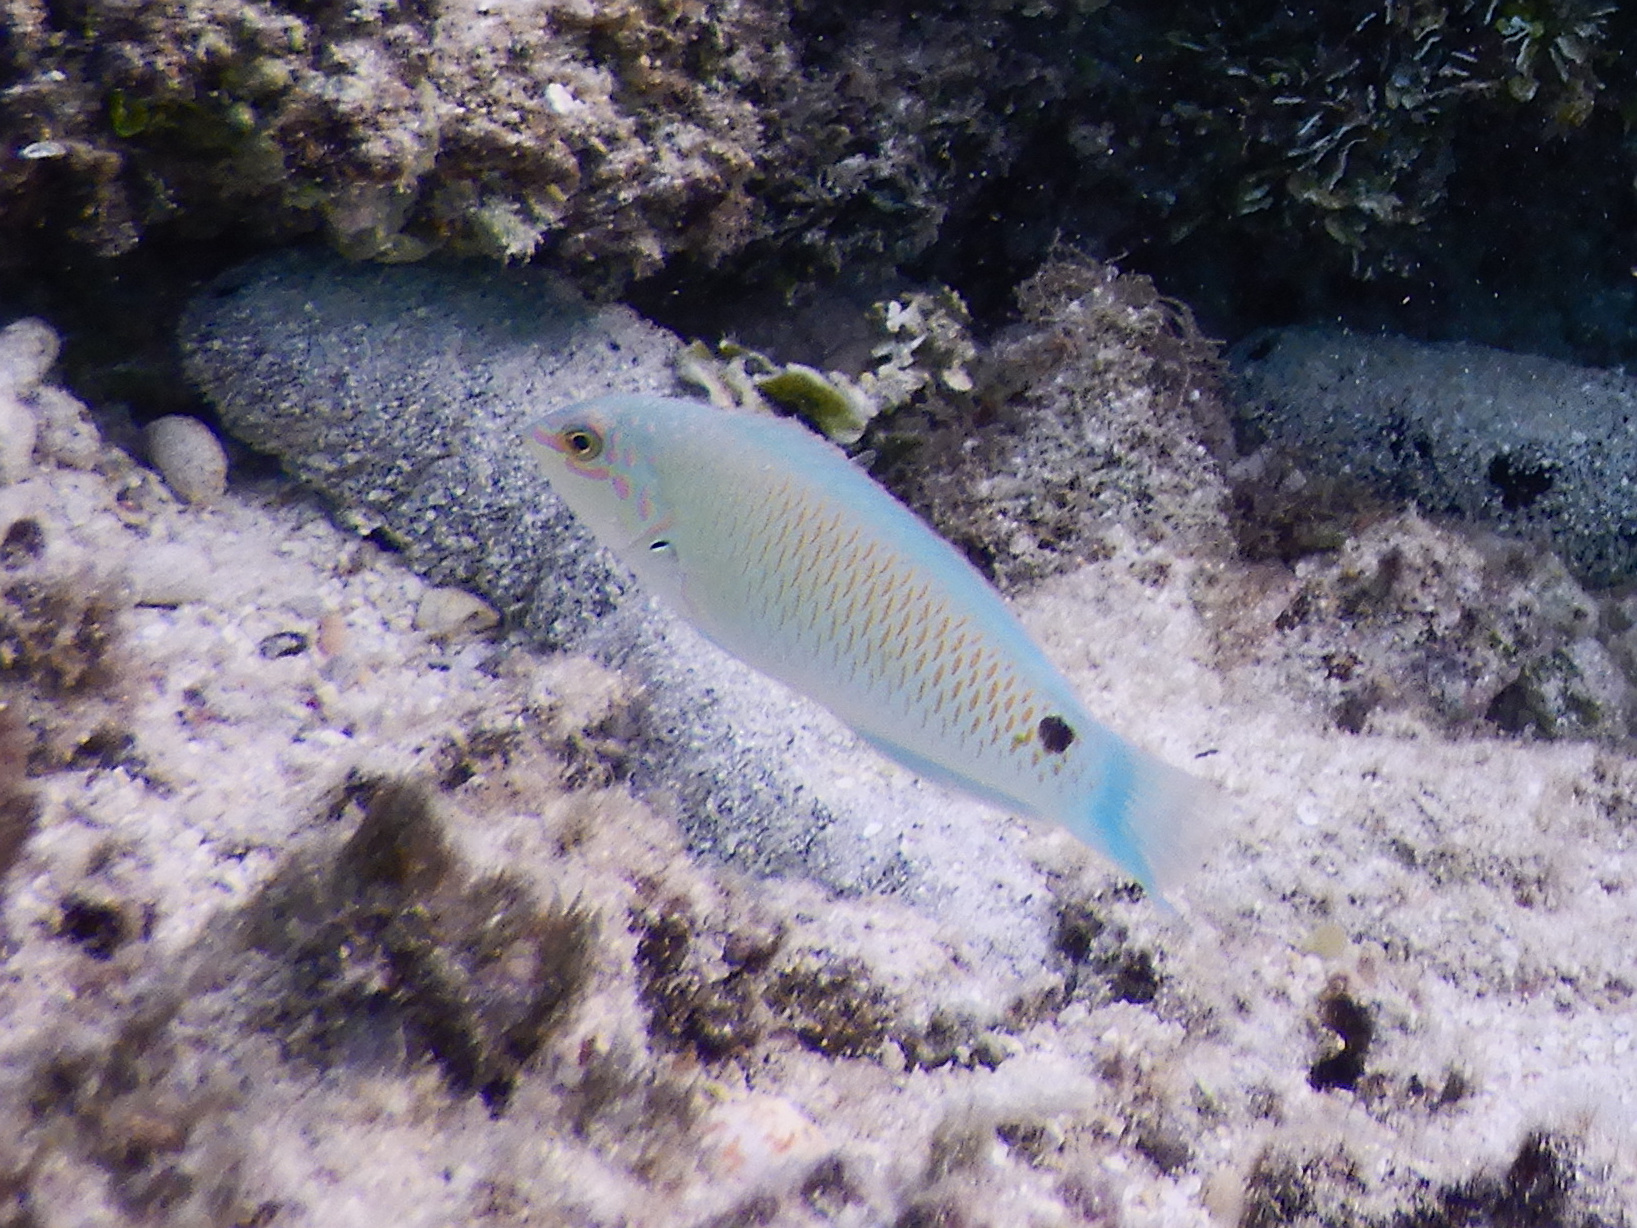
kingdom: Animalia
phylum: Chordata
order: Perciformes
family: Labridae
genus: Halichoeres
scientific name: Halichoeres trimaculatus
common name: Three-spot wrasse
